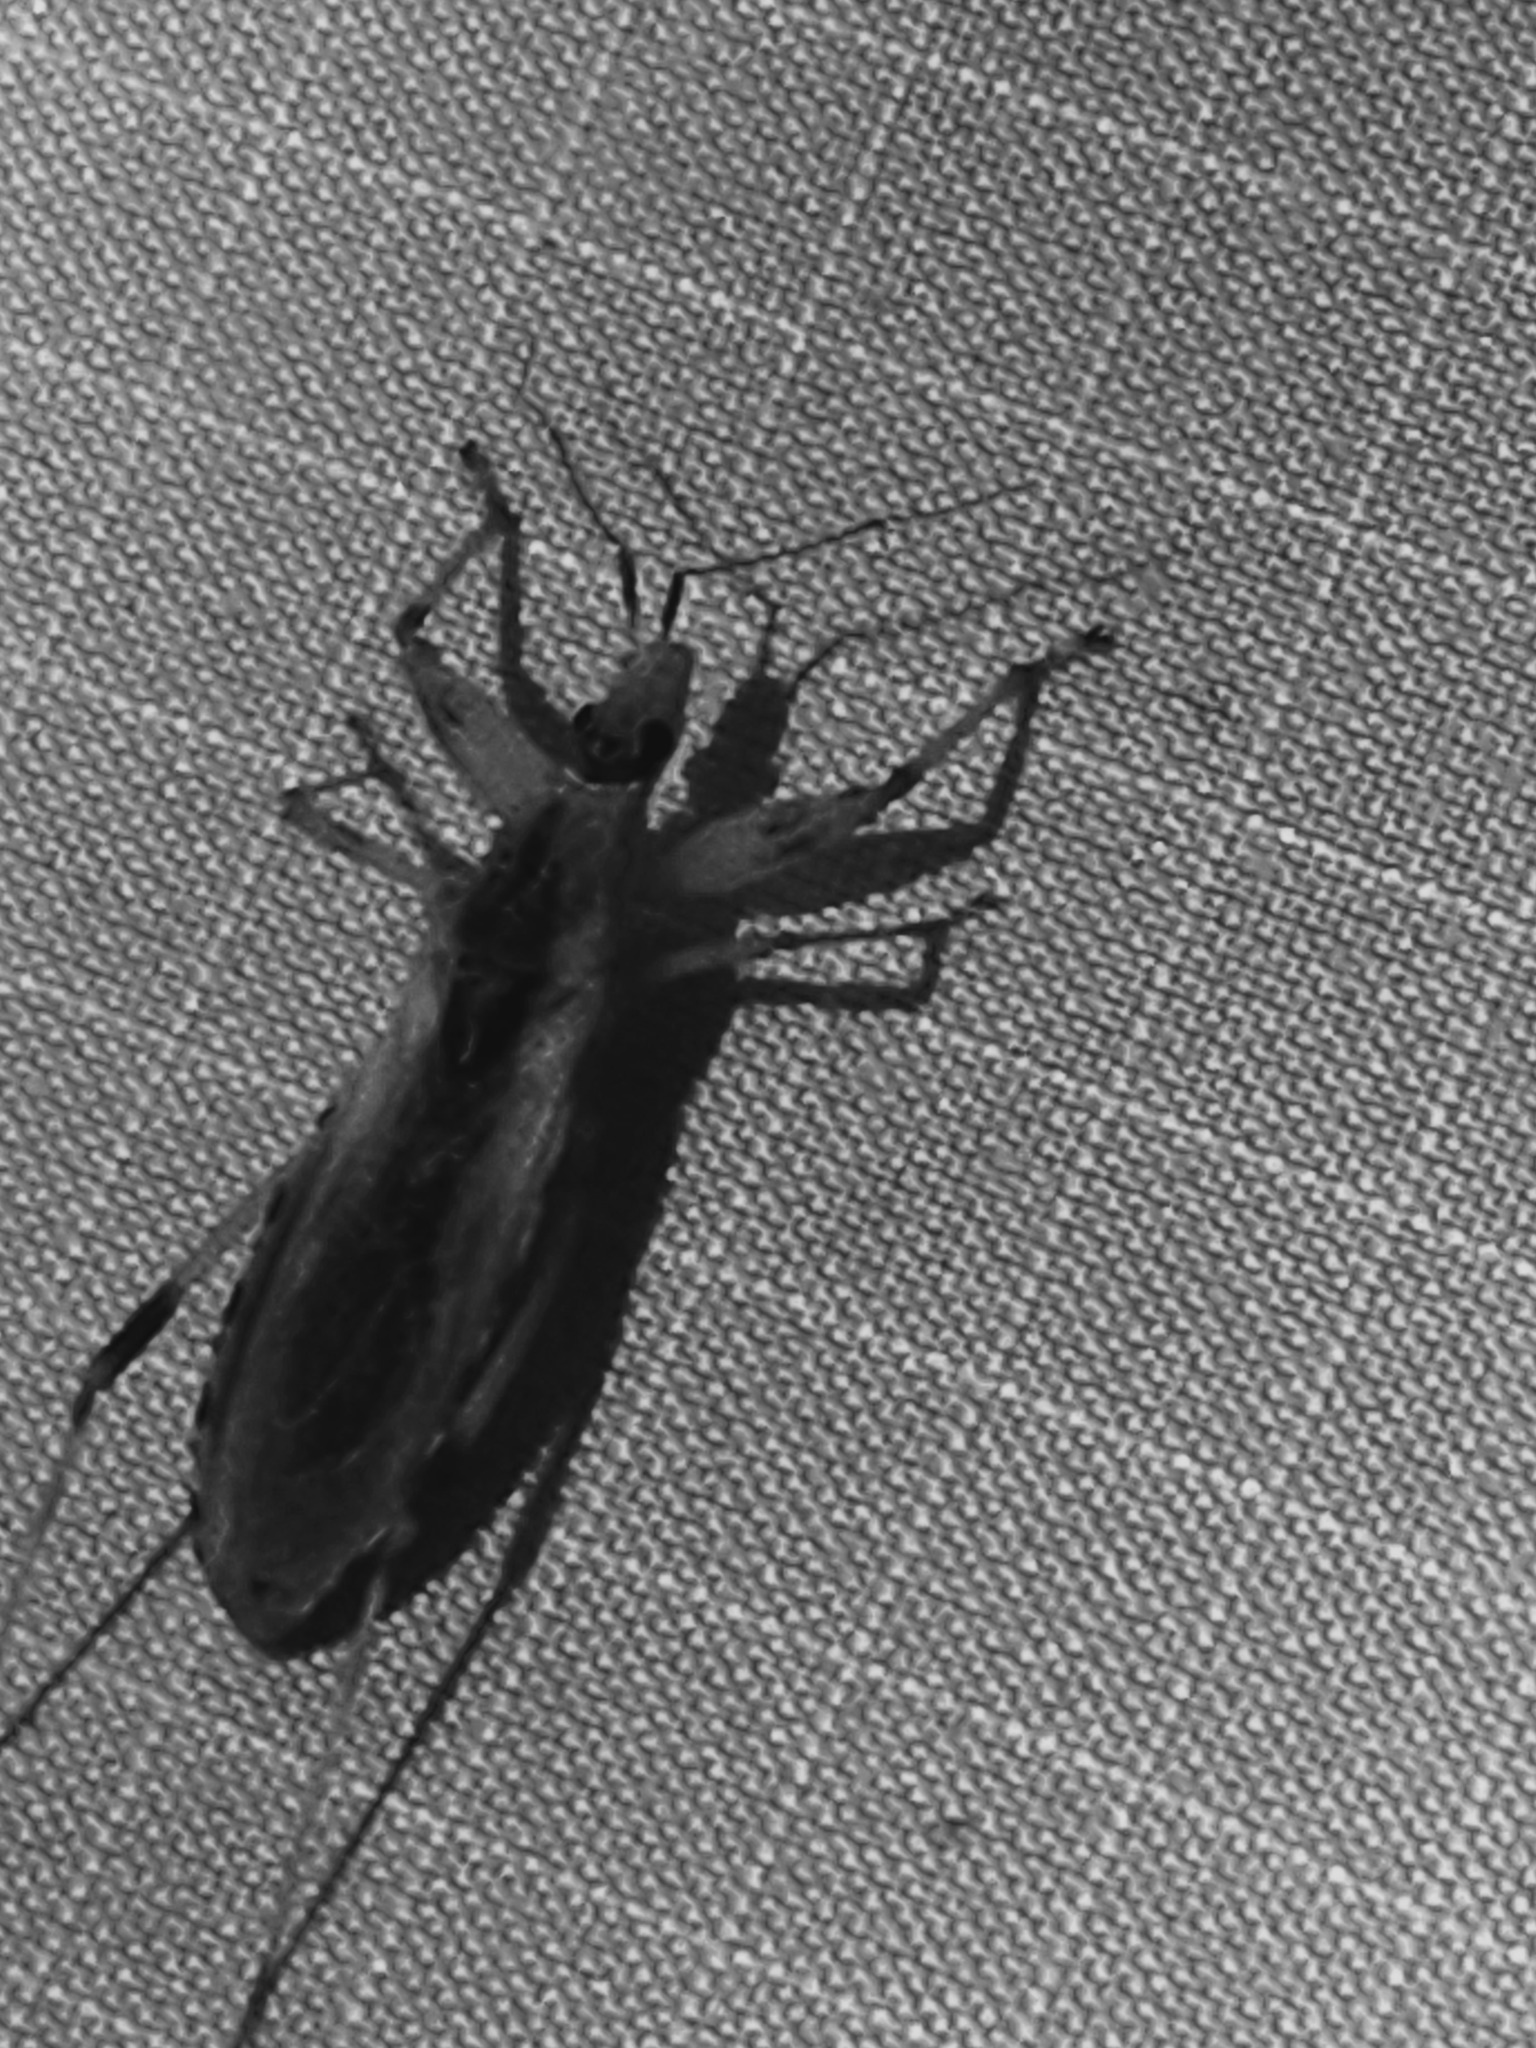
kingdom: Animalia
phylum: Arthropoda
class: Insecta
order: Hemiptera
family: Reduviidae
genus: Oncocephalus
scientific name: Oncocephalus nubilus
